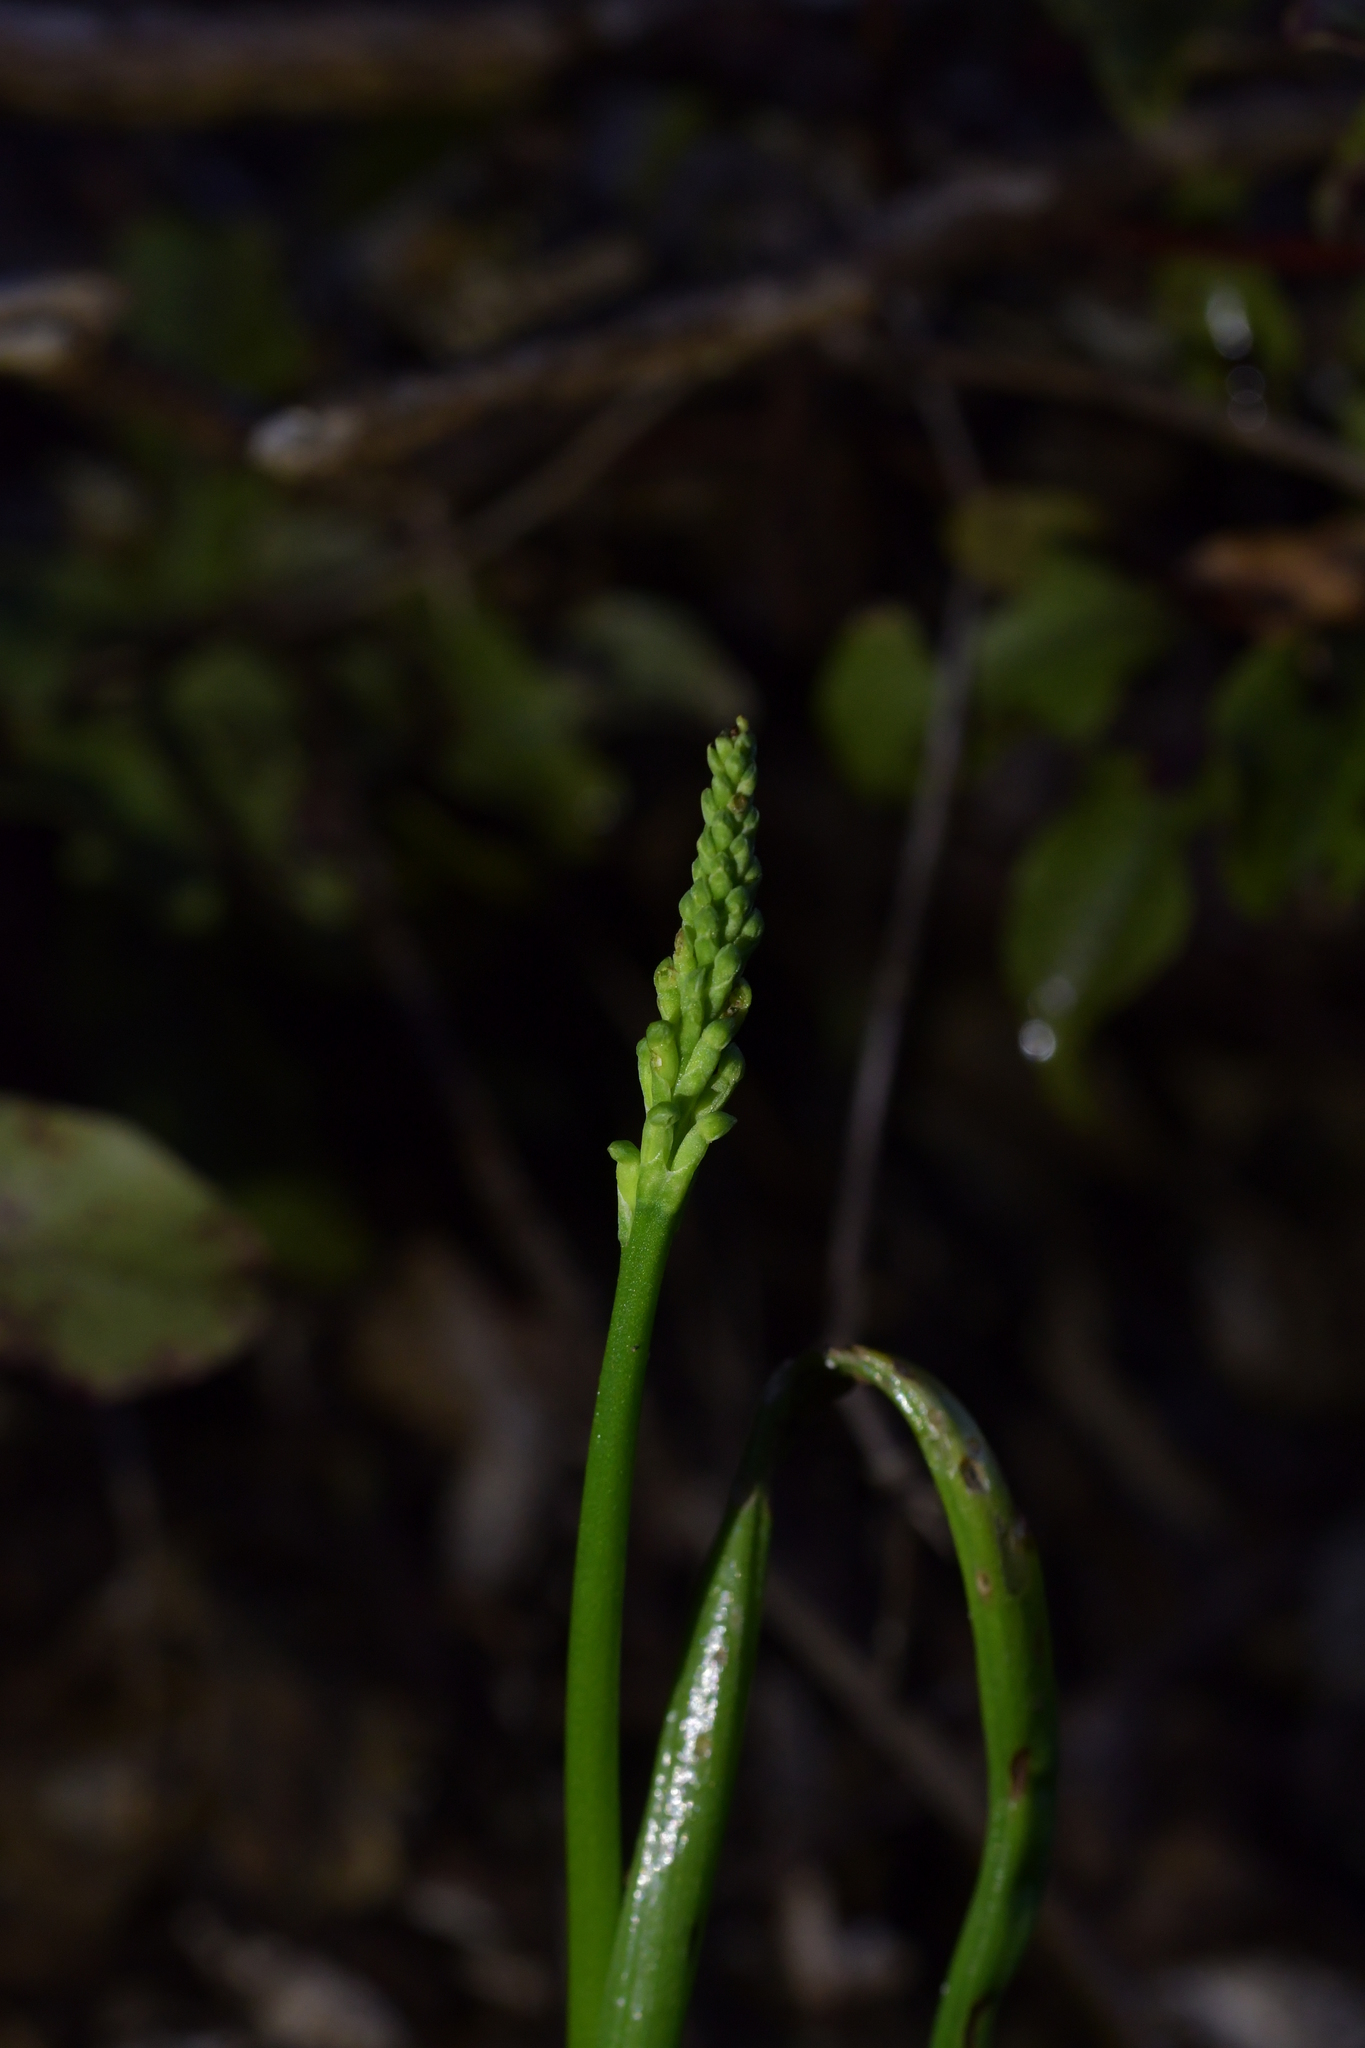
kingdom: Plantae
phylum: Tracheophyta
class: Liliopsida
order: Asparagales
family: Orchidaceae
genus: Microtis
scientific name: Microtis unifolia
